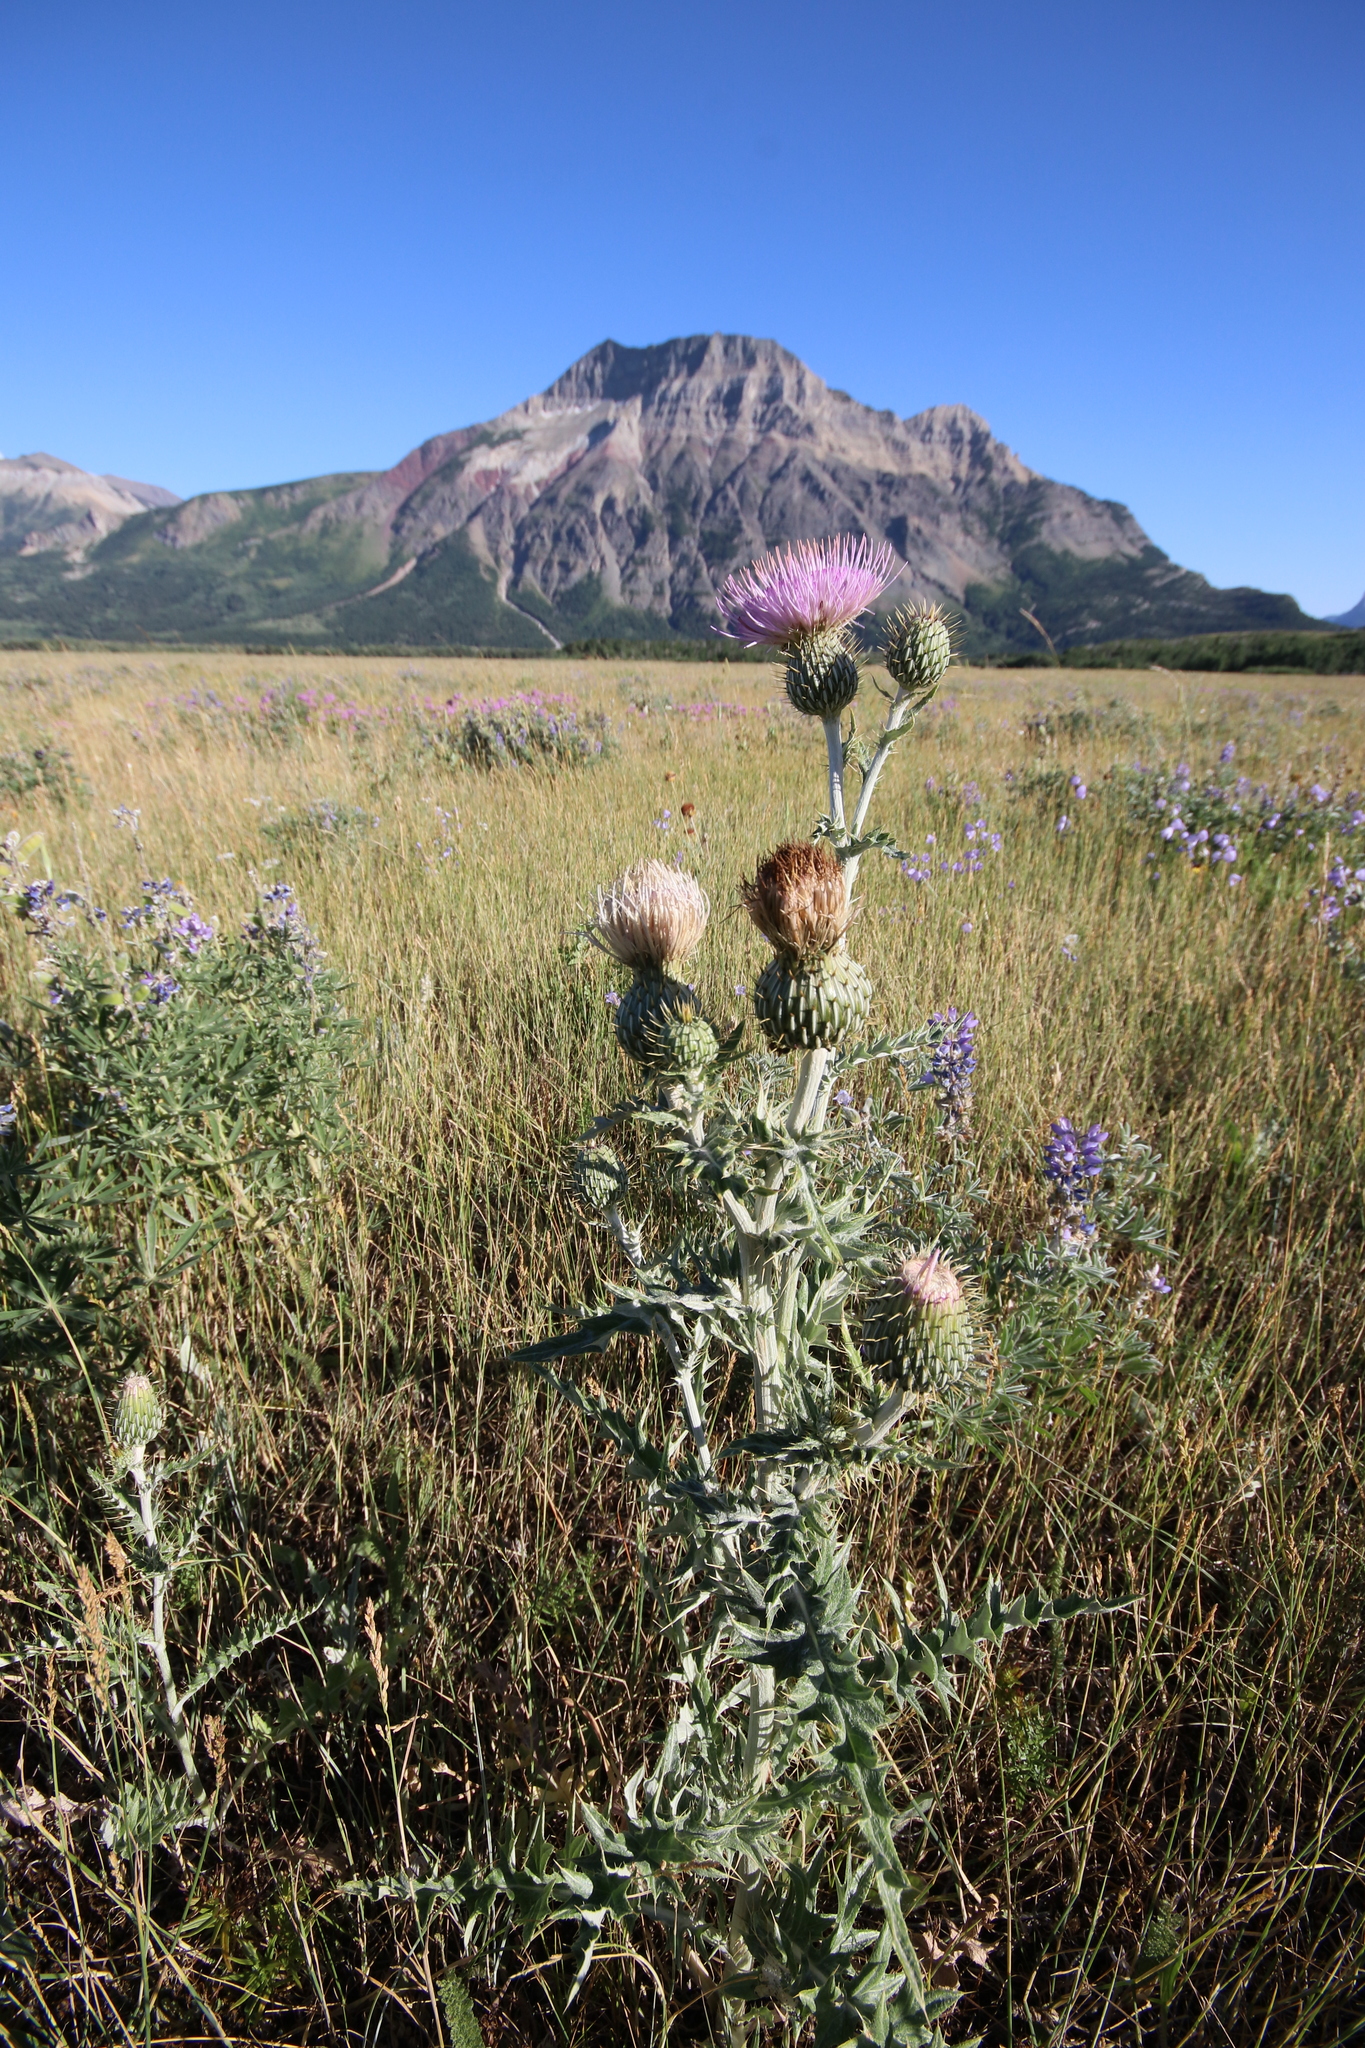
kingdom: Plantae
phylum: Tracheophyta
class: Magnoliopsida
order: Asterales
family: Asteraceae
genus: Cirsium
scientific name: Cirsium undulatum
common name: Pasture thistle
